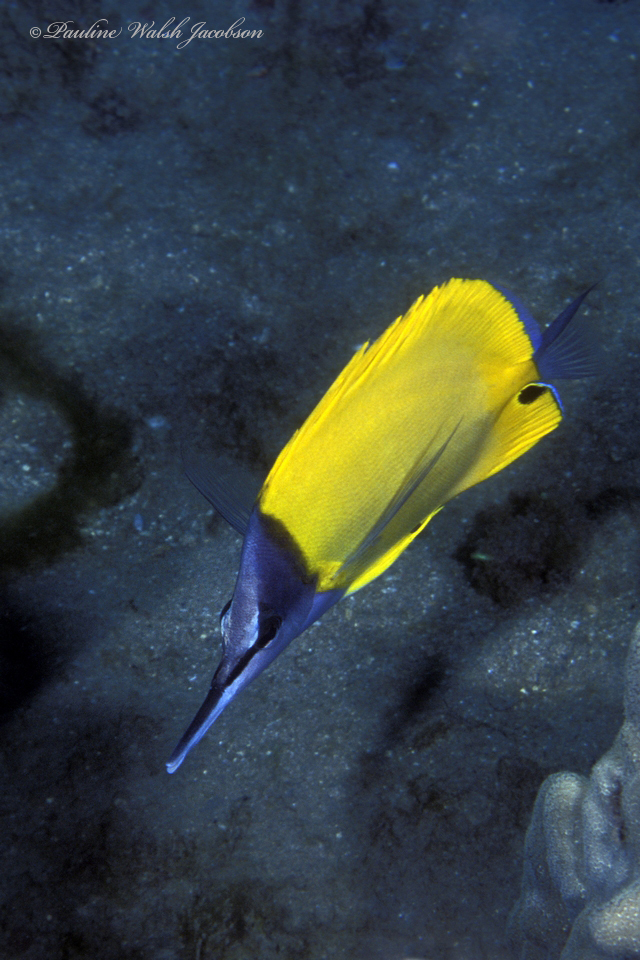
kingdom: Animalia
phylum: Chordata
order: Perciformes
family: Chaetodontidae
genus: Forcipiger
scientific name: Forcipiger flavissimus
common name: Forcepsfish
